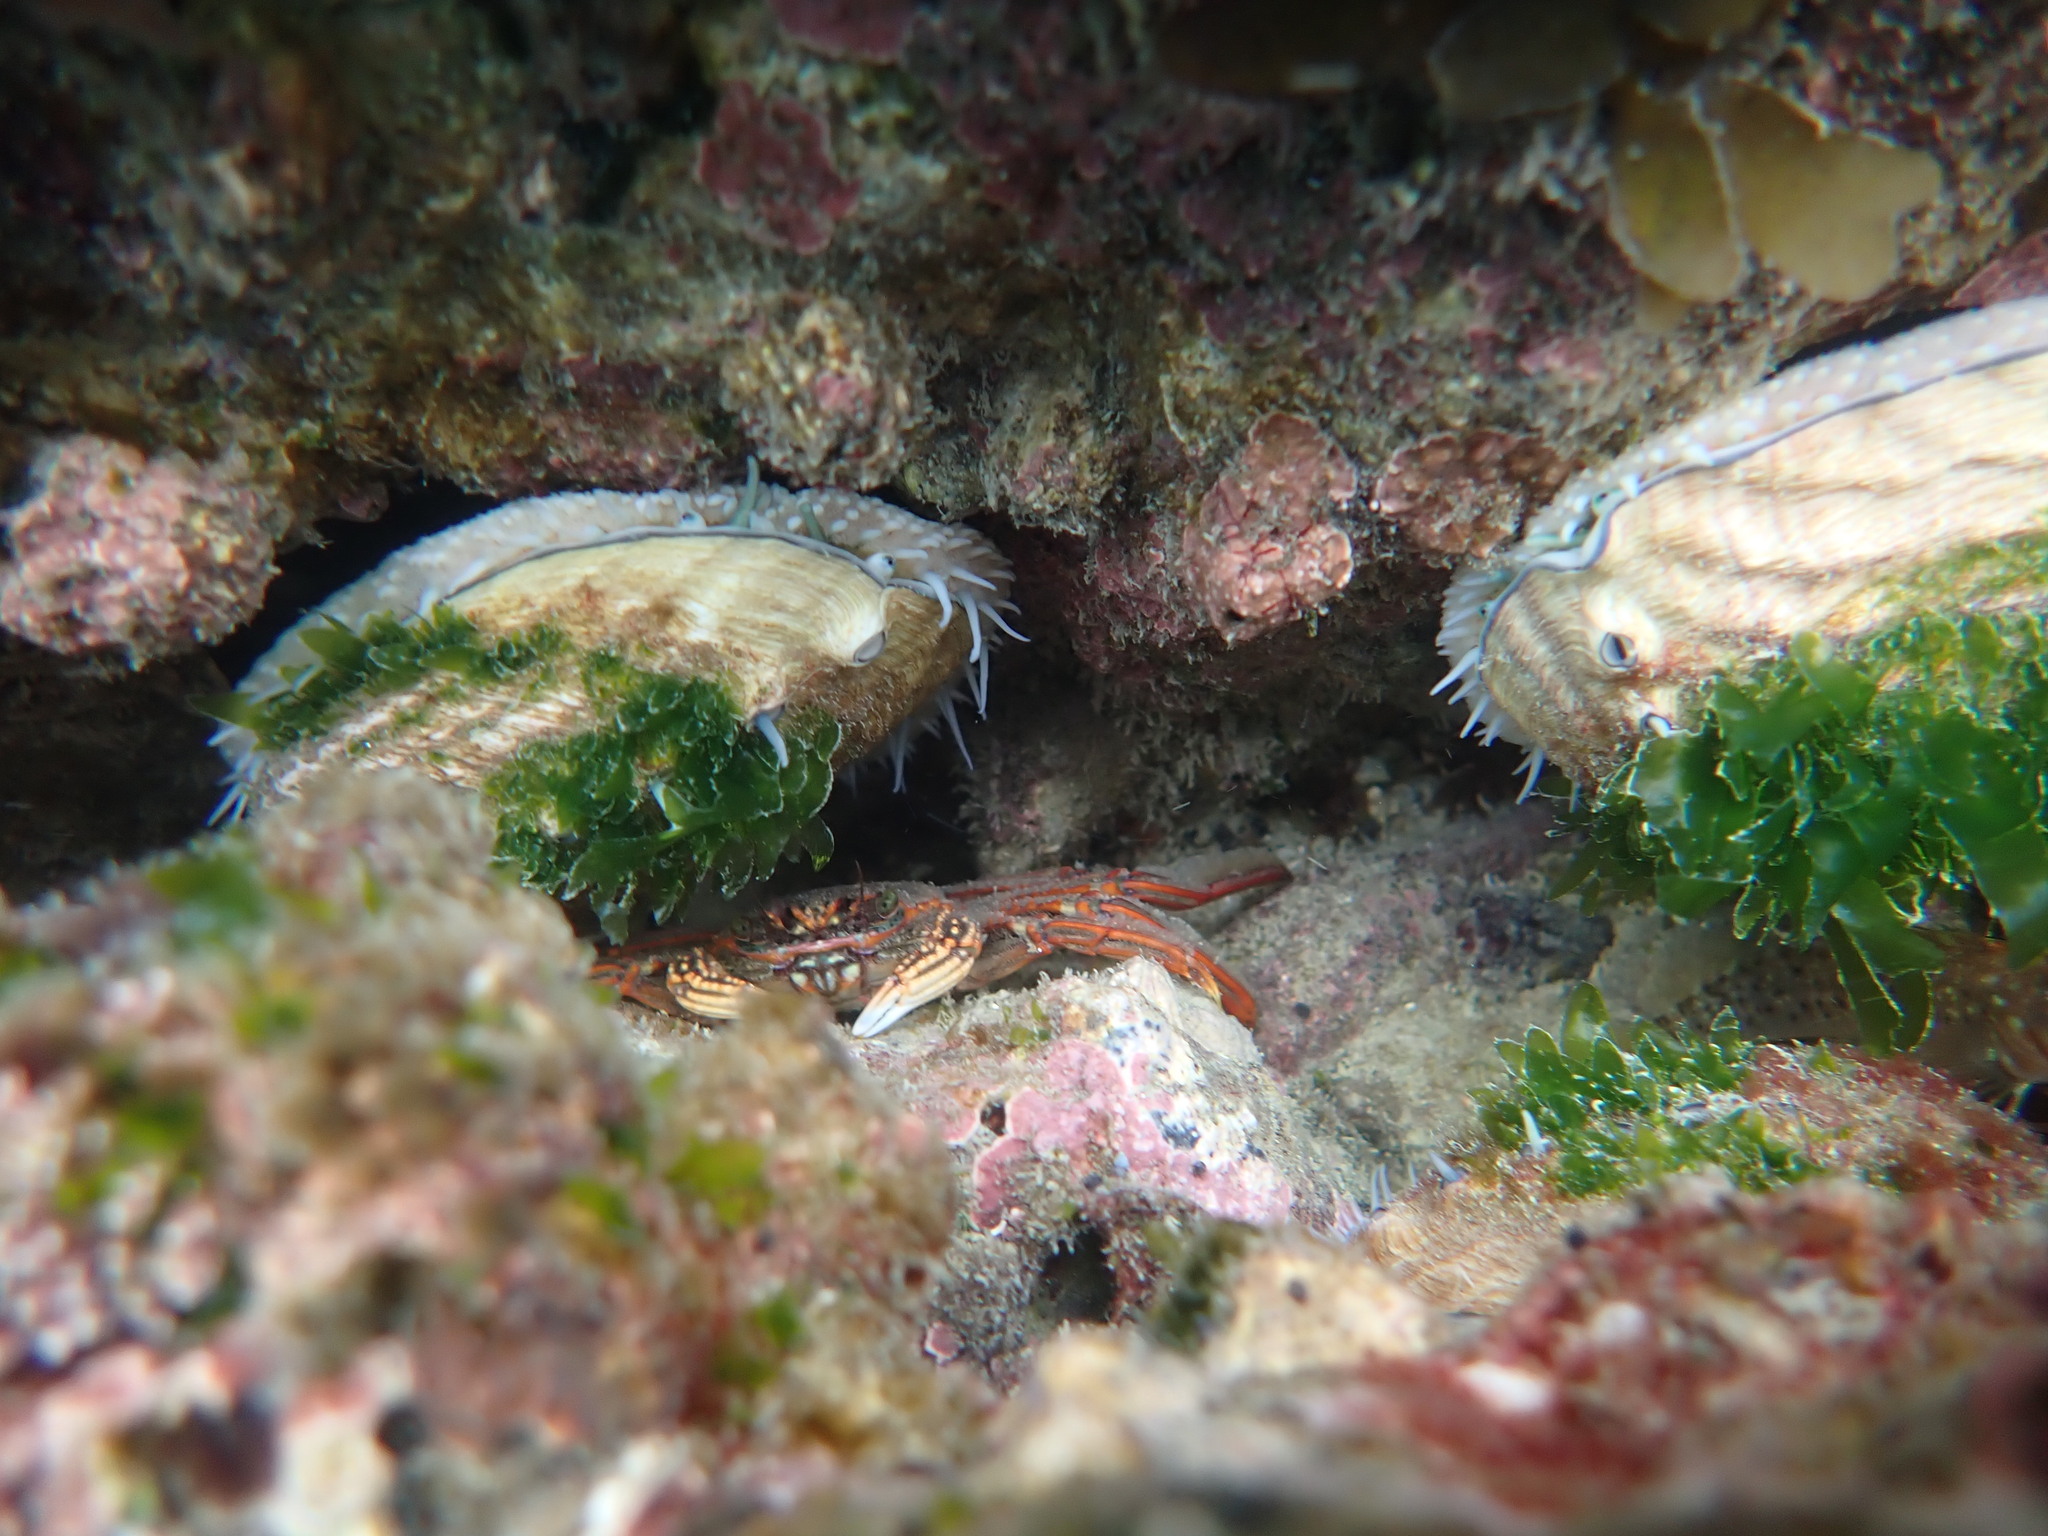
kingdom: Animalia
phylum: Arthropoda
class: Malacostraca
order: Decapoda
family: Plagusiidae
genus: Guinusia
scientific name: Guinusia chabrus
